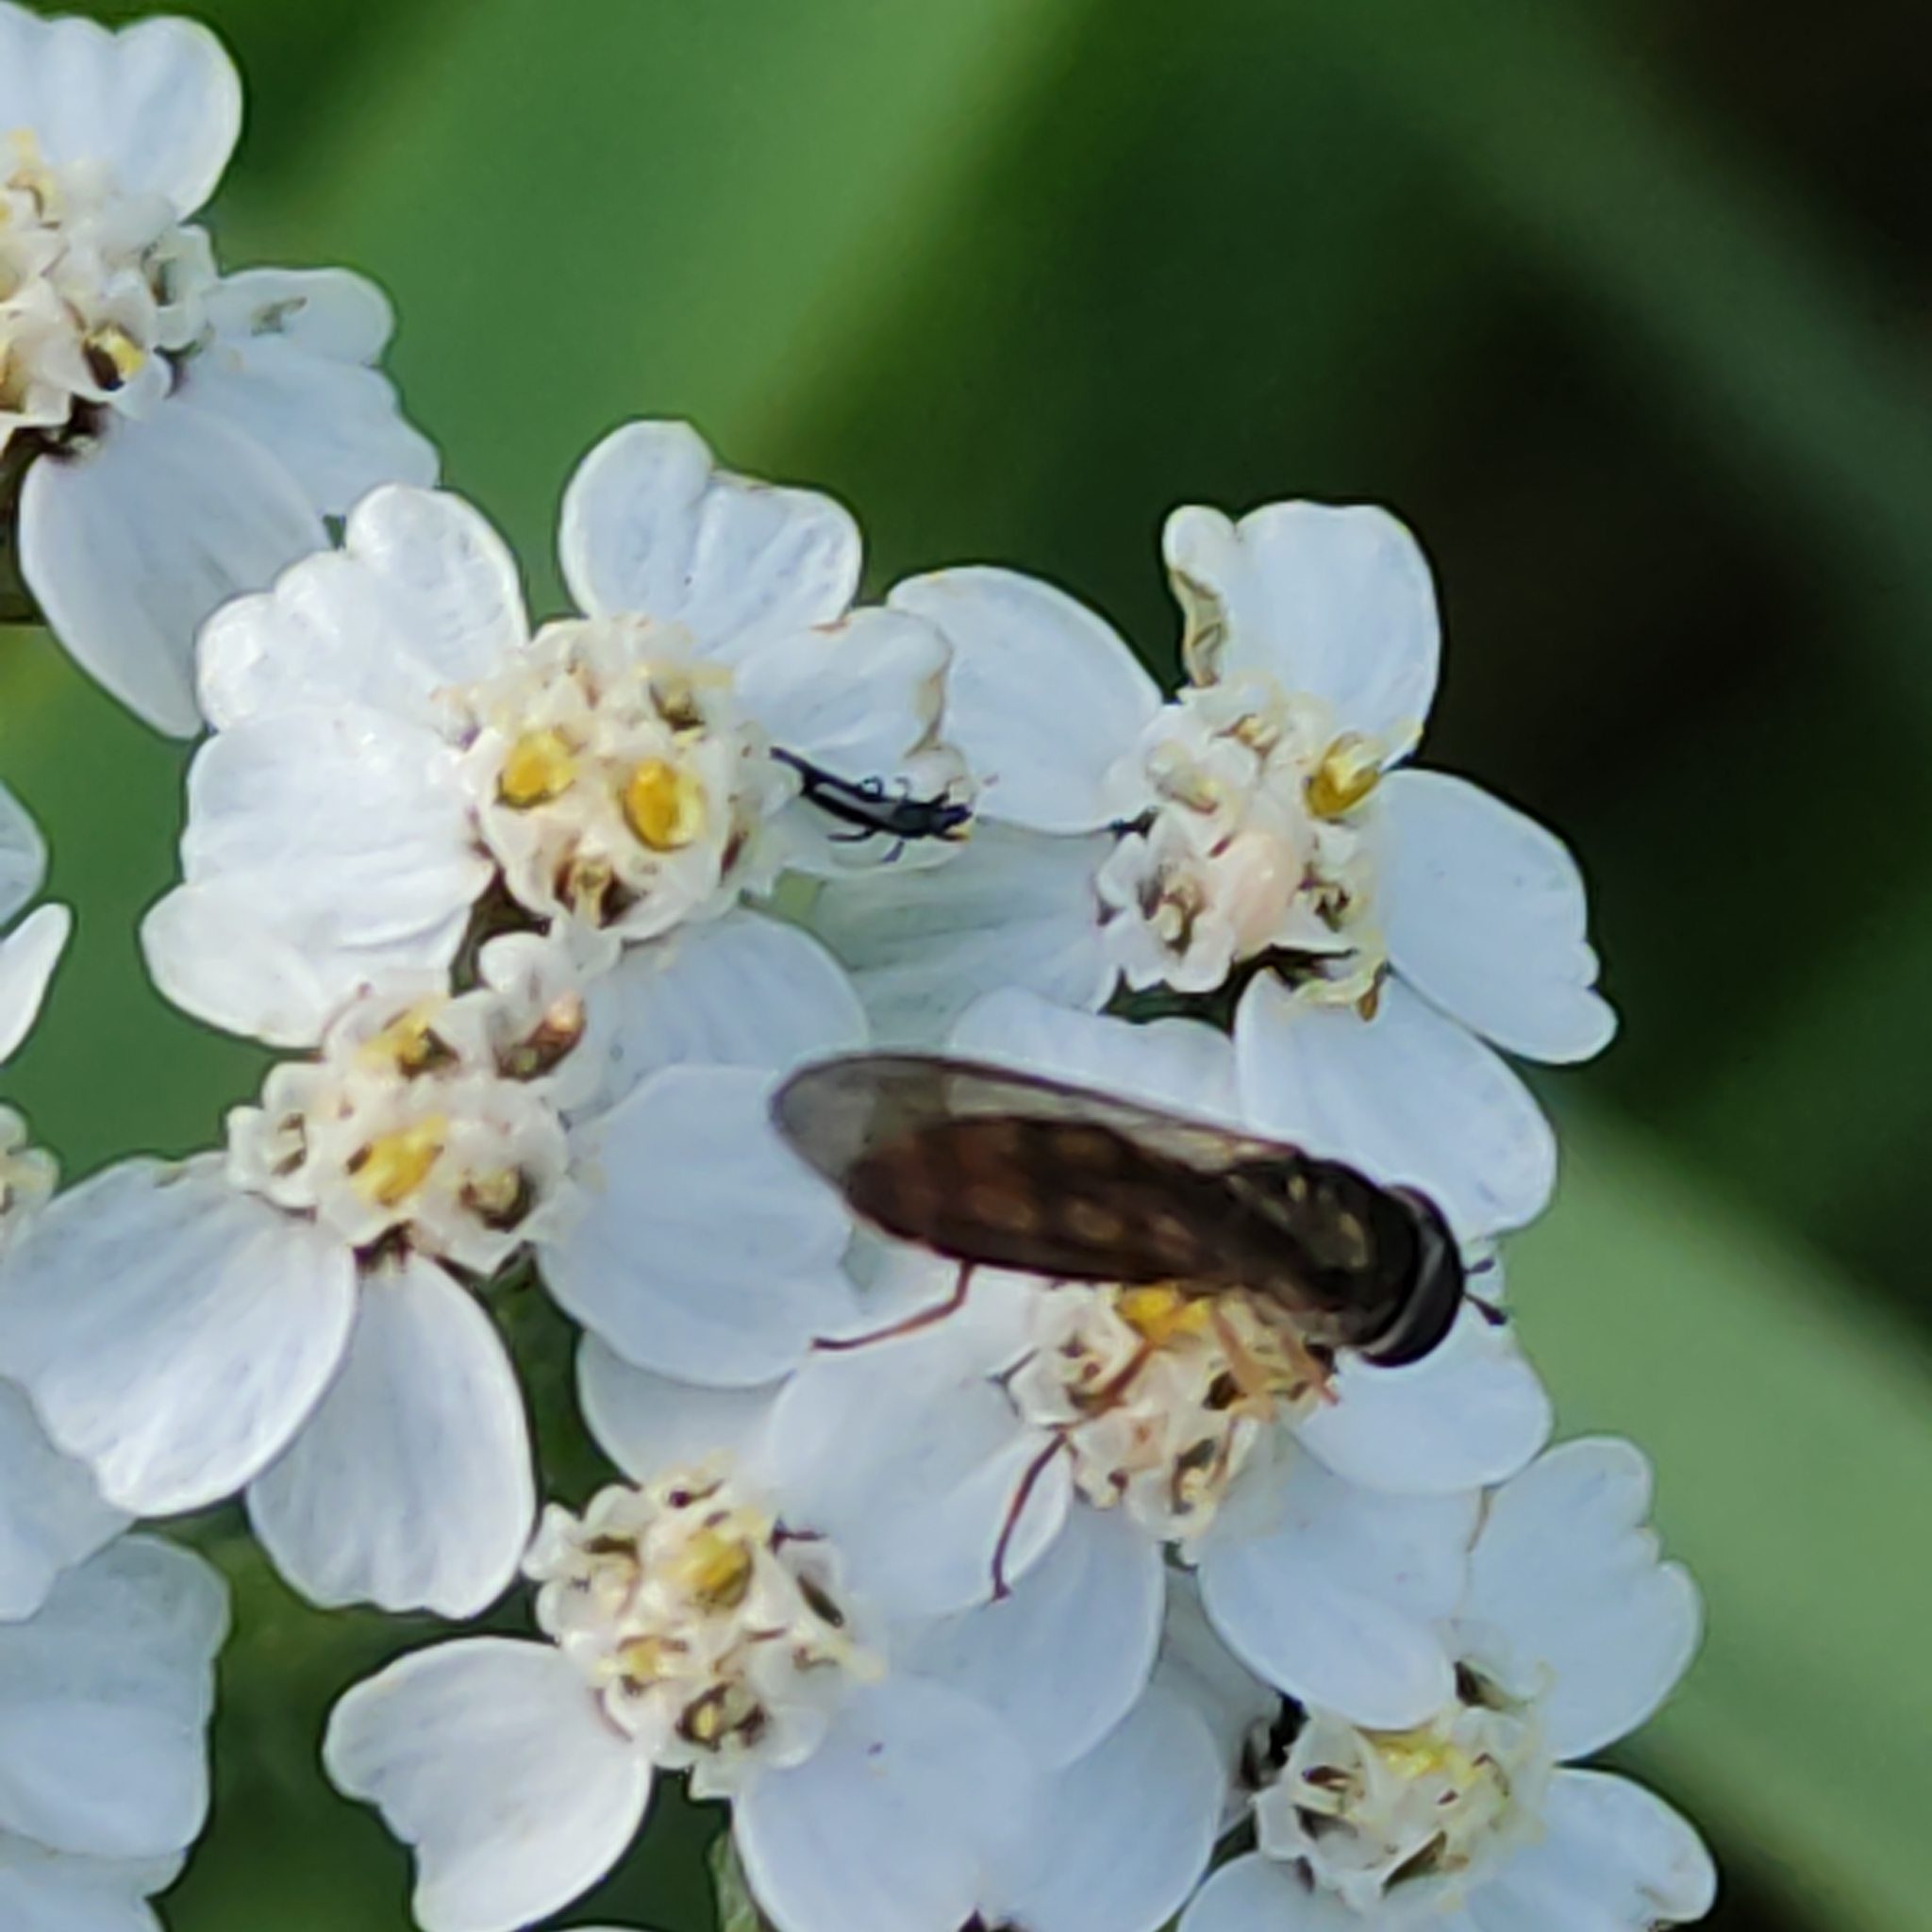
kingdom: Animalia
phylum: Arthropoda
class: Insecta
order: Diptera
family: Syrphidae
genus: Melanostoma
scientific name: Melanostoma fasciatum
